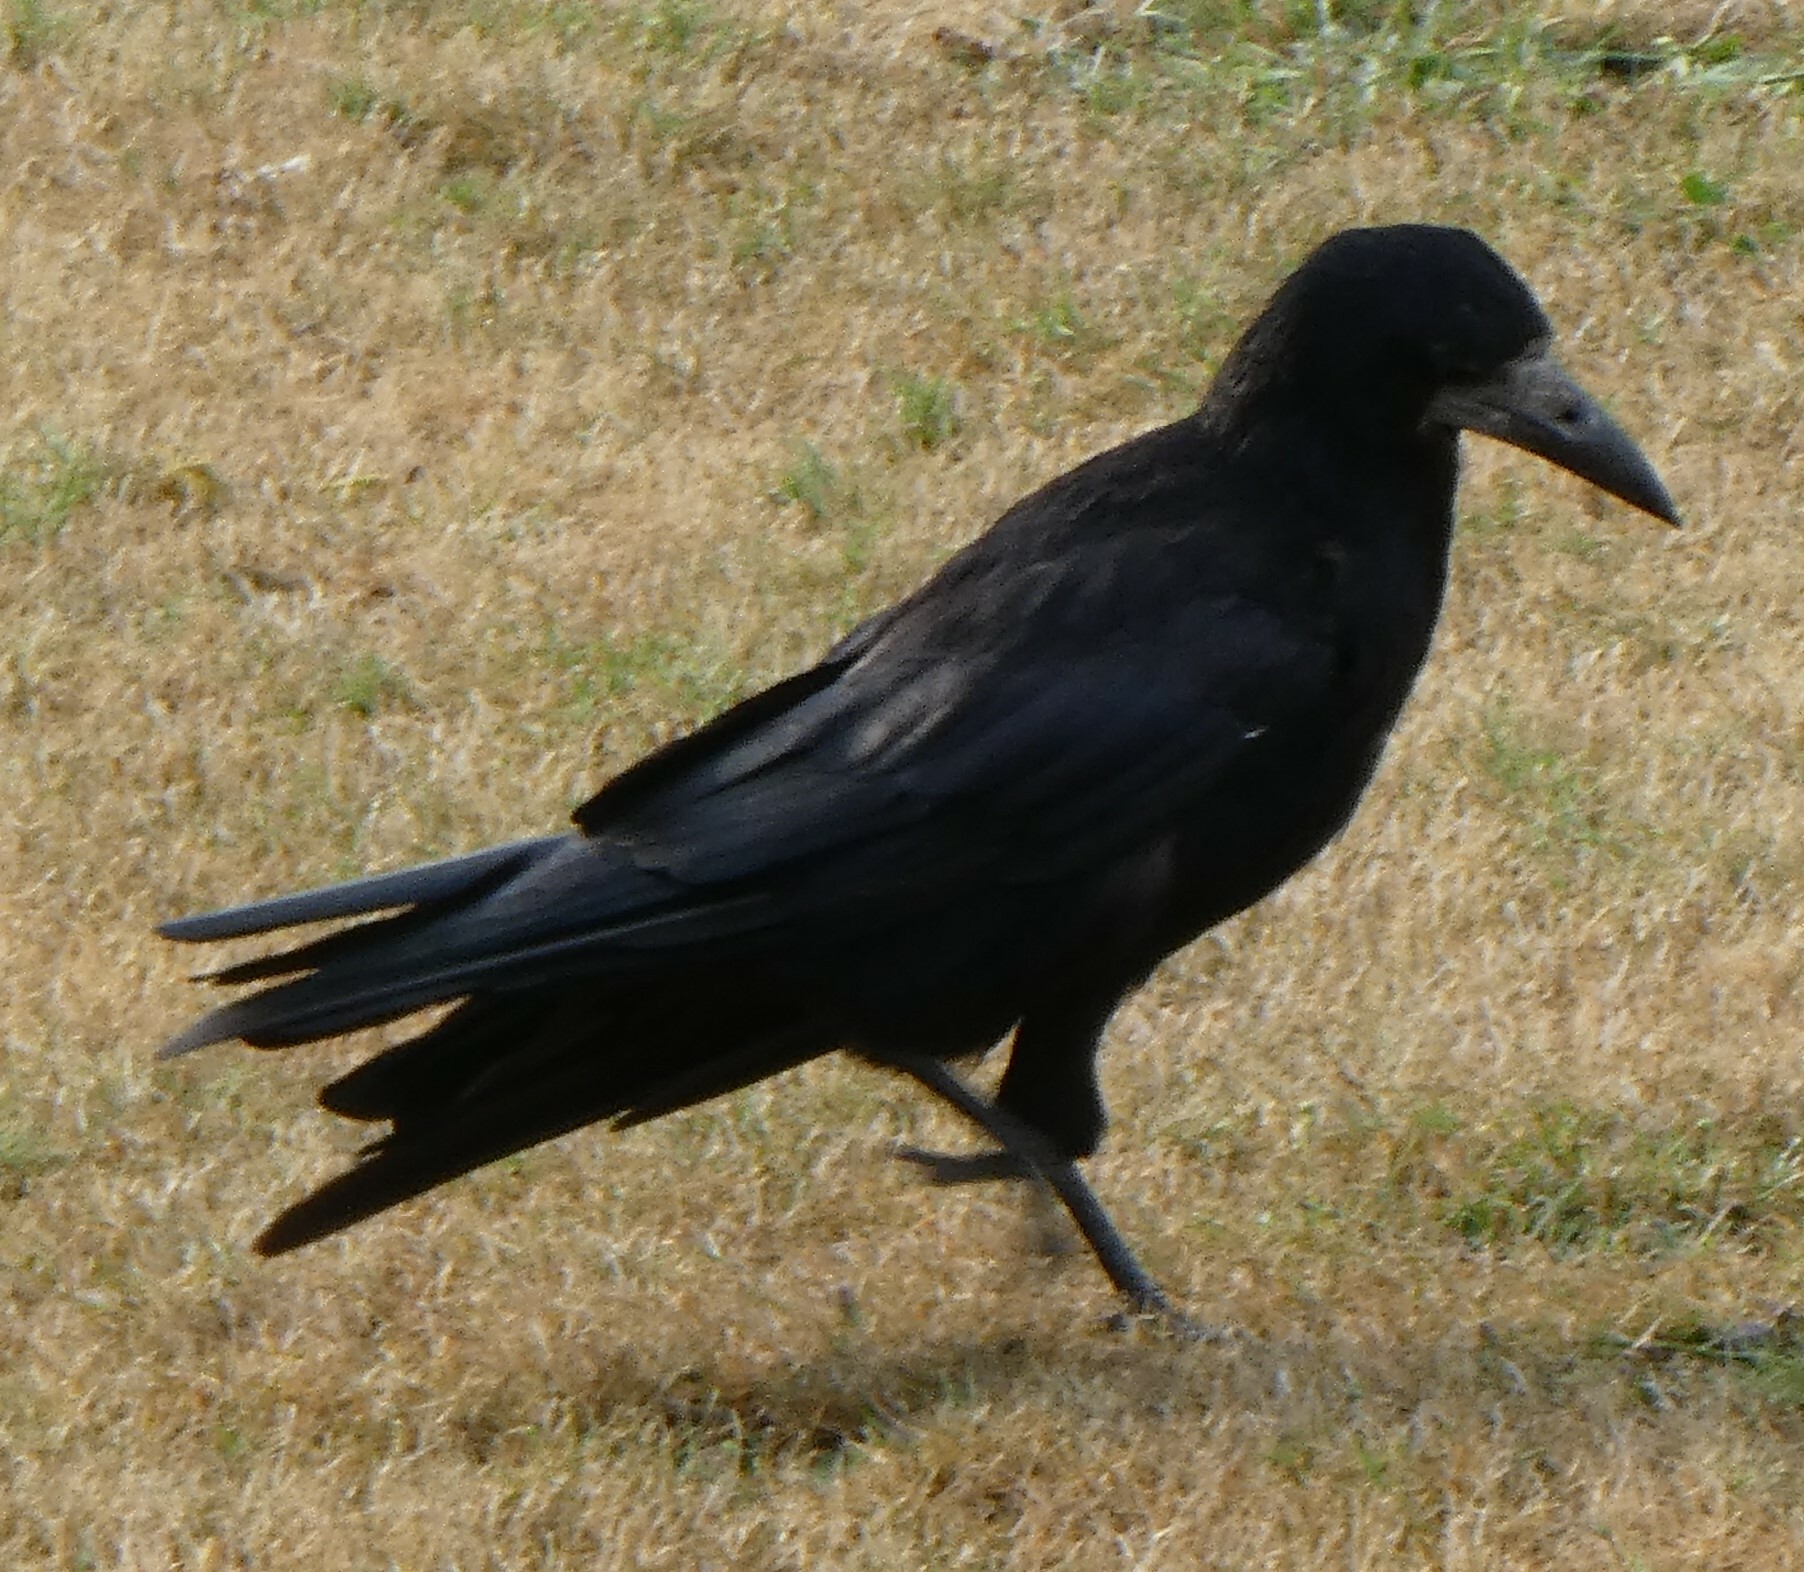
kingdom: Animalia
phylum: Chordata
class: Aves
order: Passeriformes
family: Corvidae
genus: Corvus
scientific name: Corvus frugilegus
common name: Rook
